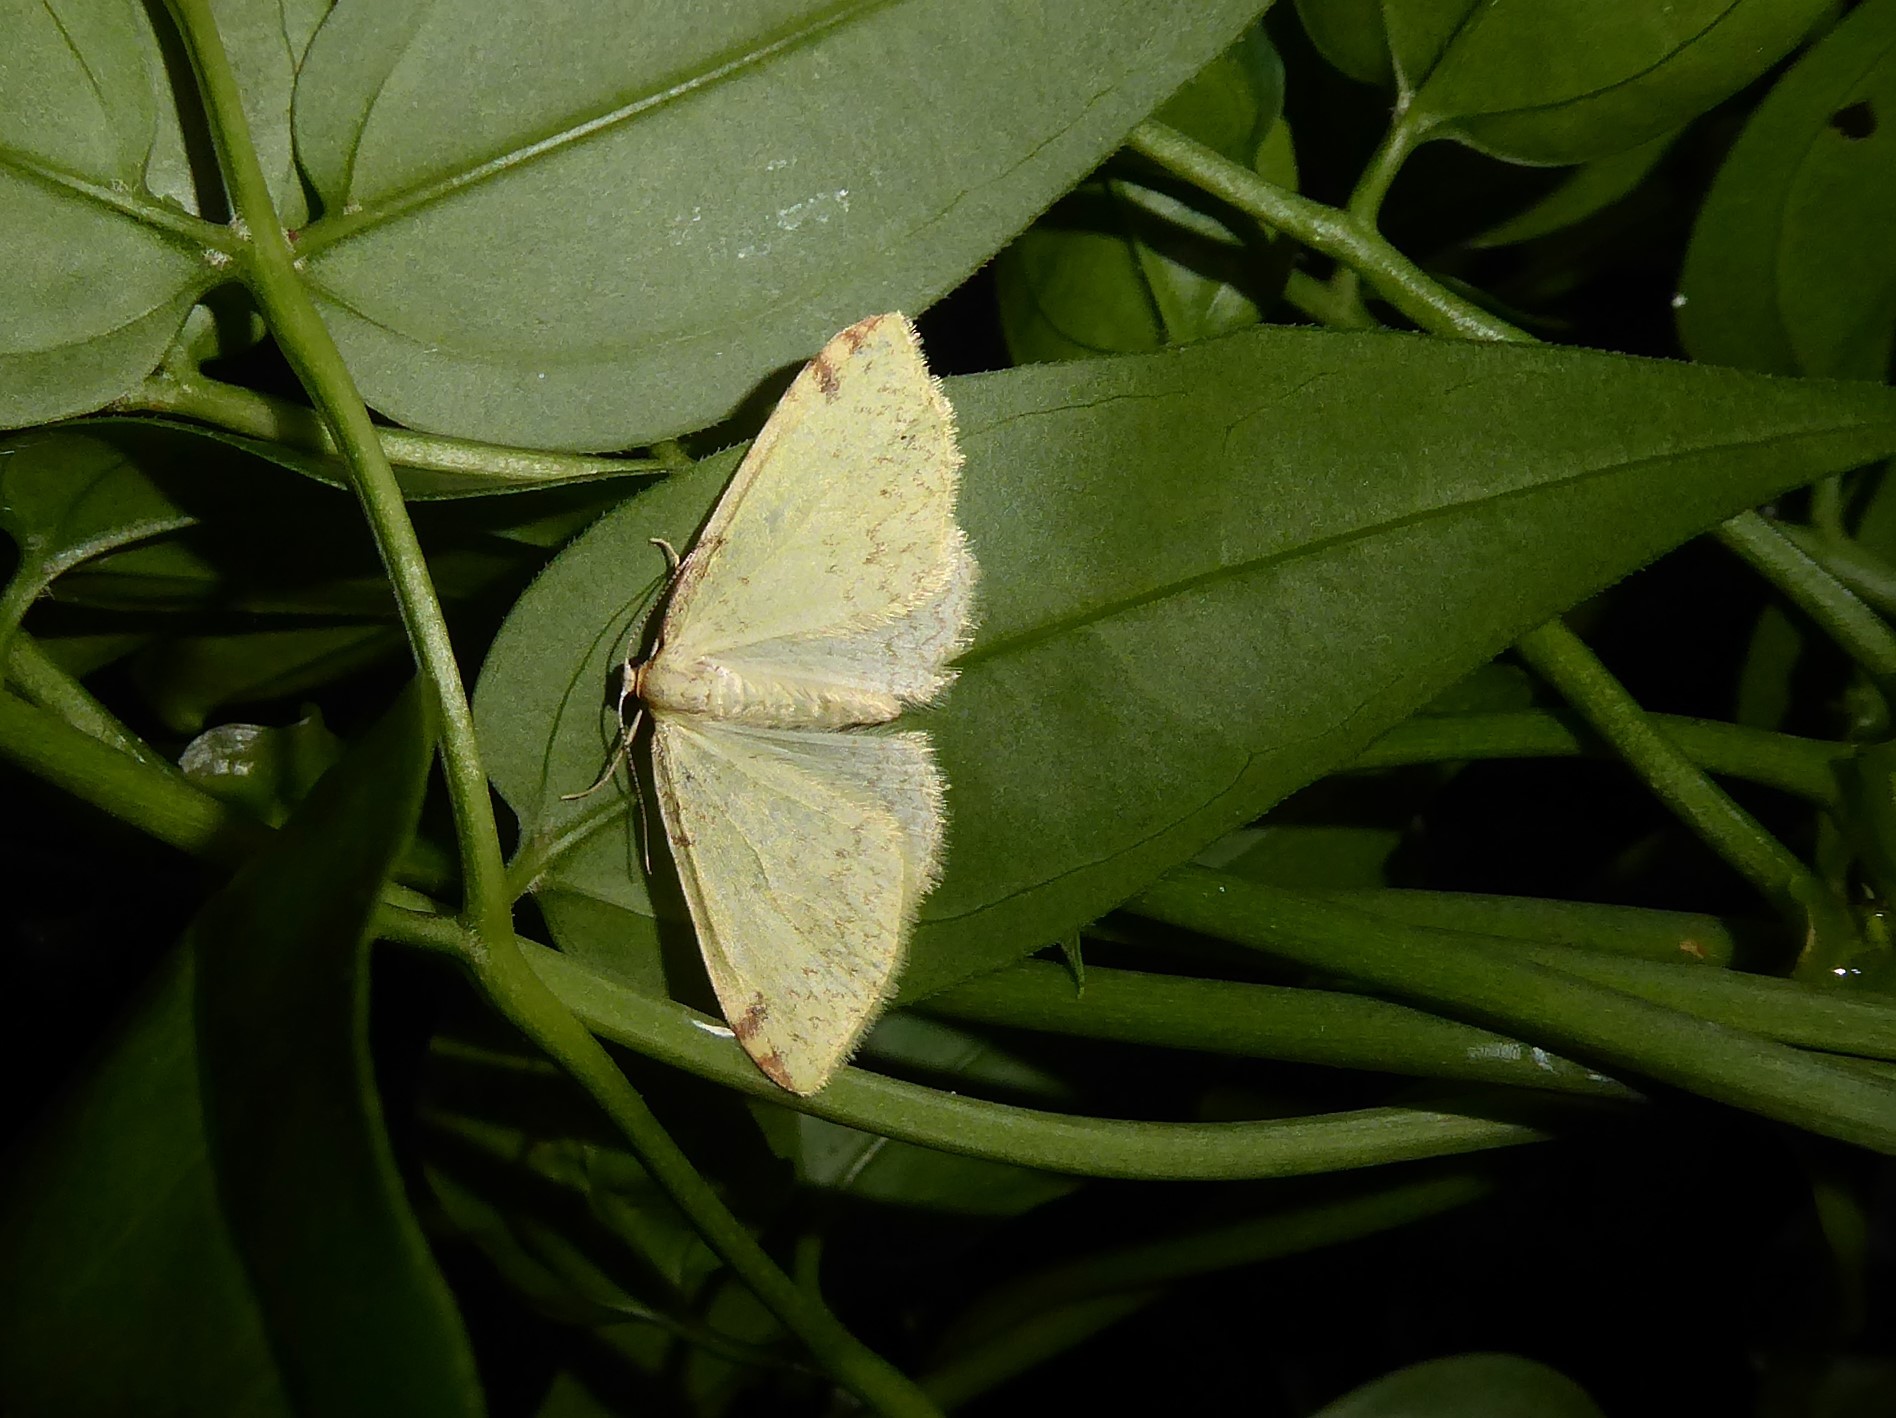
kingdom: Animalia
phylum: Arthropoda
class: Insecta
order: Lepidoptera
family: Geometridae
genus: Epiphryne
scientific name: Epiphryne undosata
